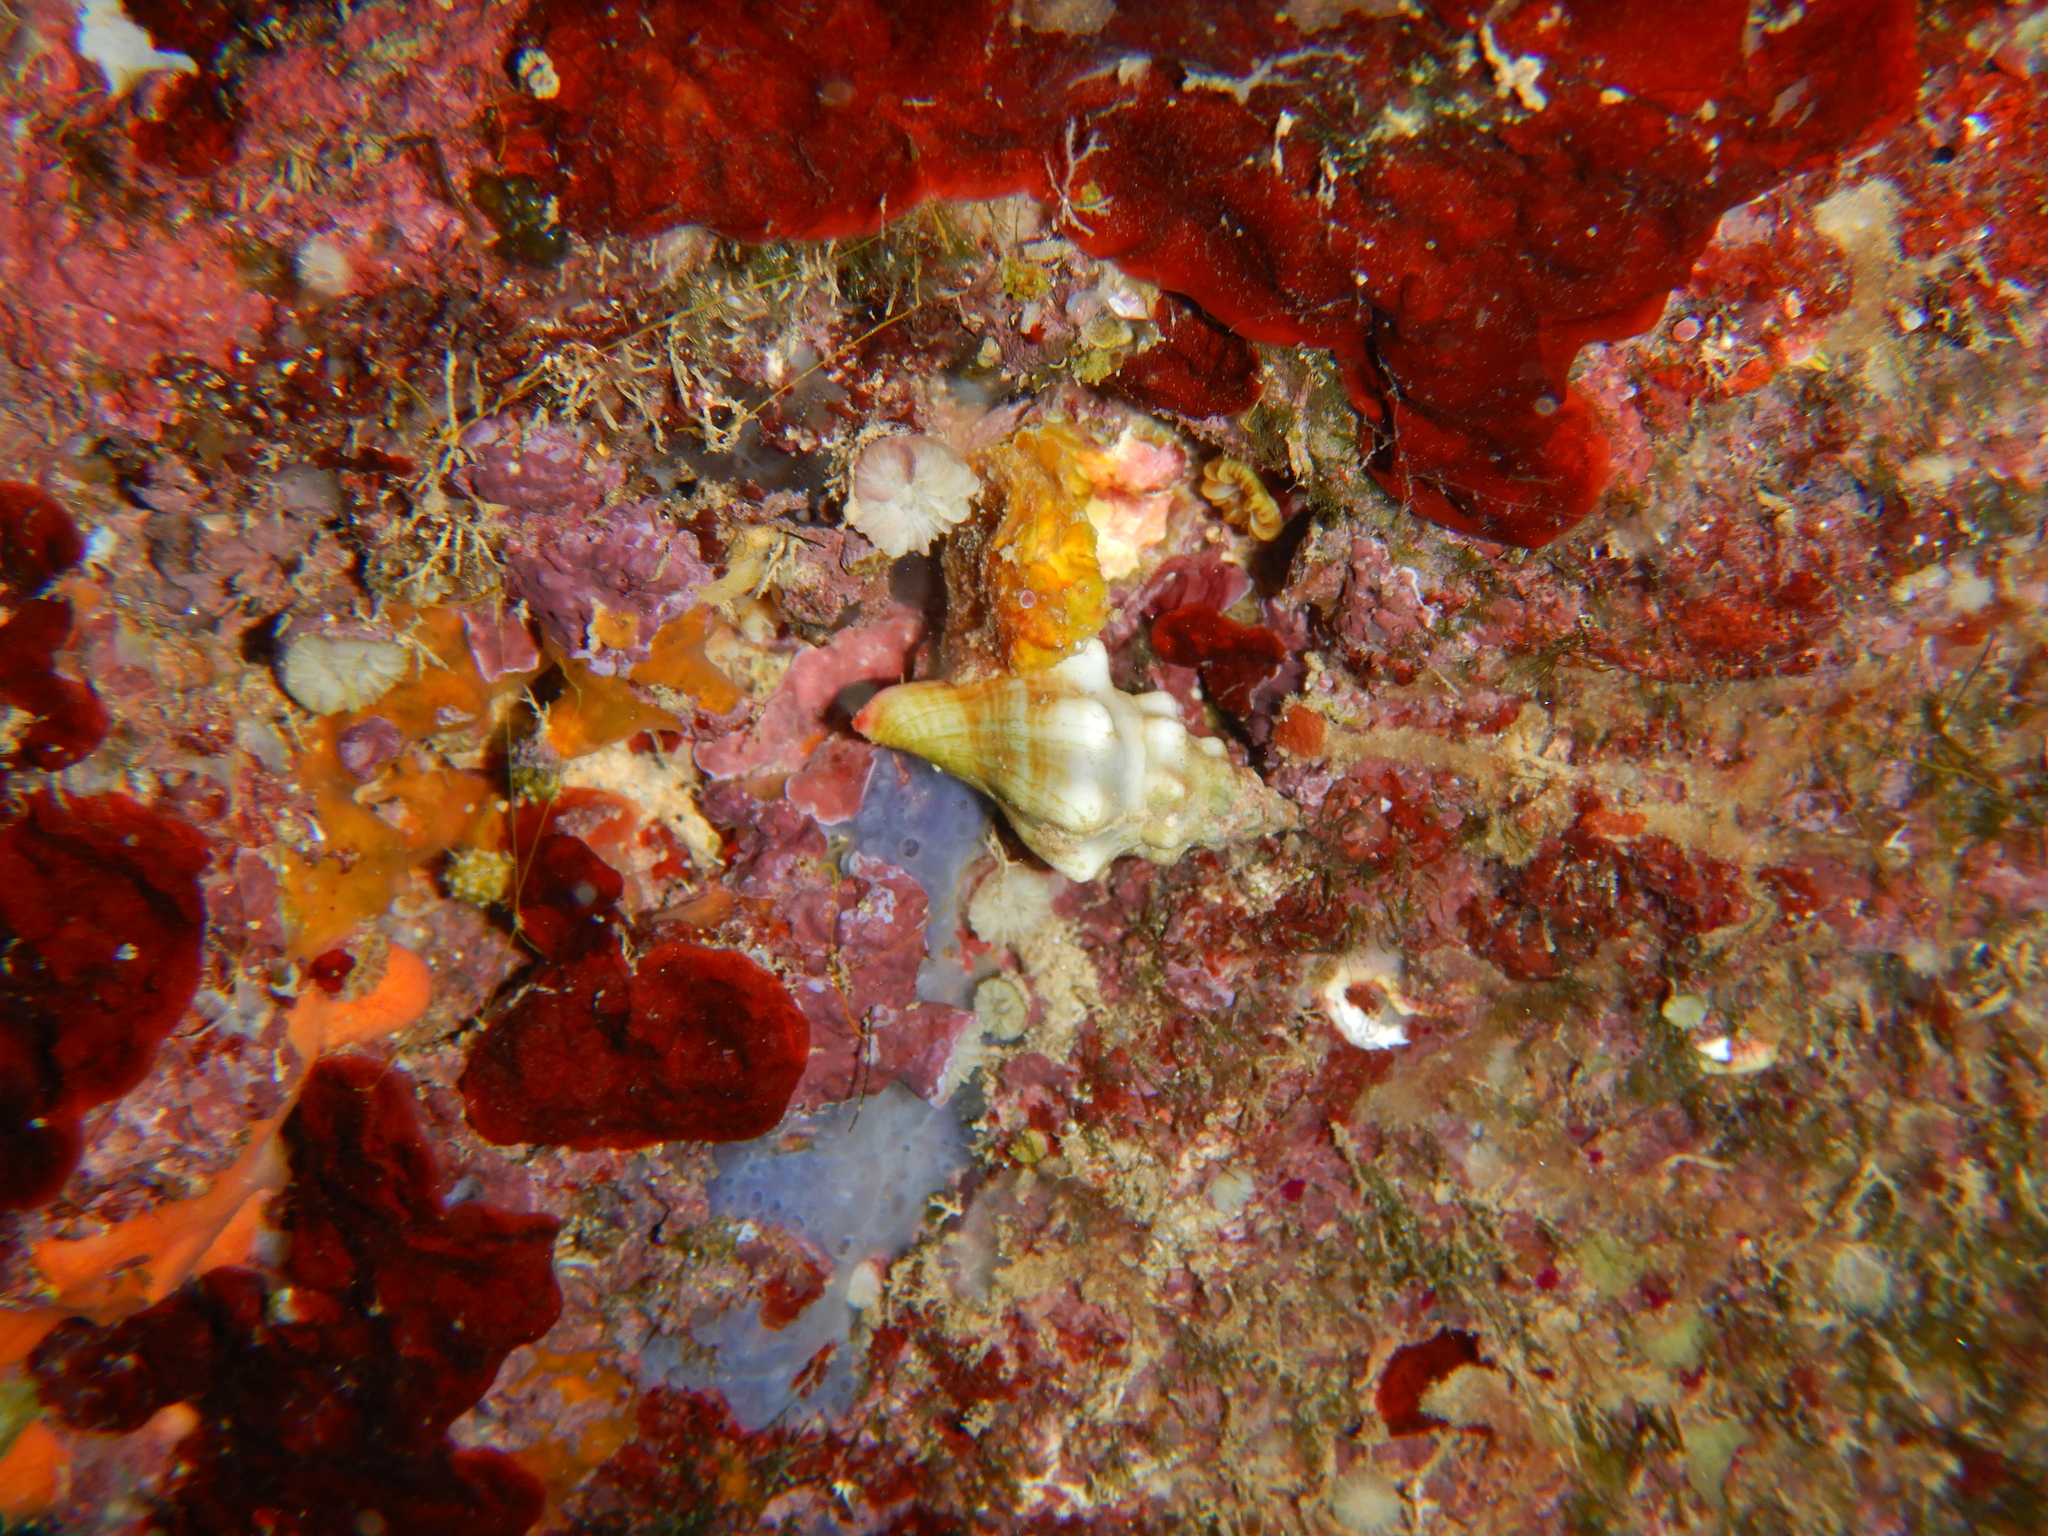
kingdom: Animalia
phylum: Mollusca
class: Gastropoda
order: Neogastropoda
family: Fasciolariidae
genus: Tarantinaea
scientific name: Tarantinaea lignaria
